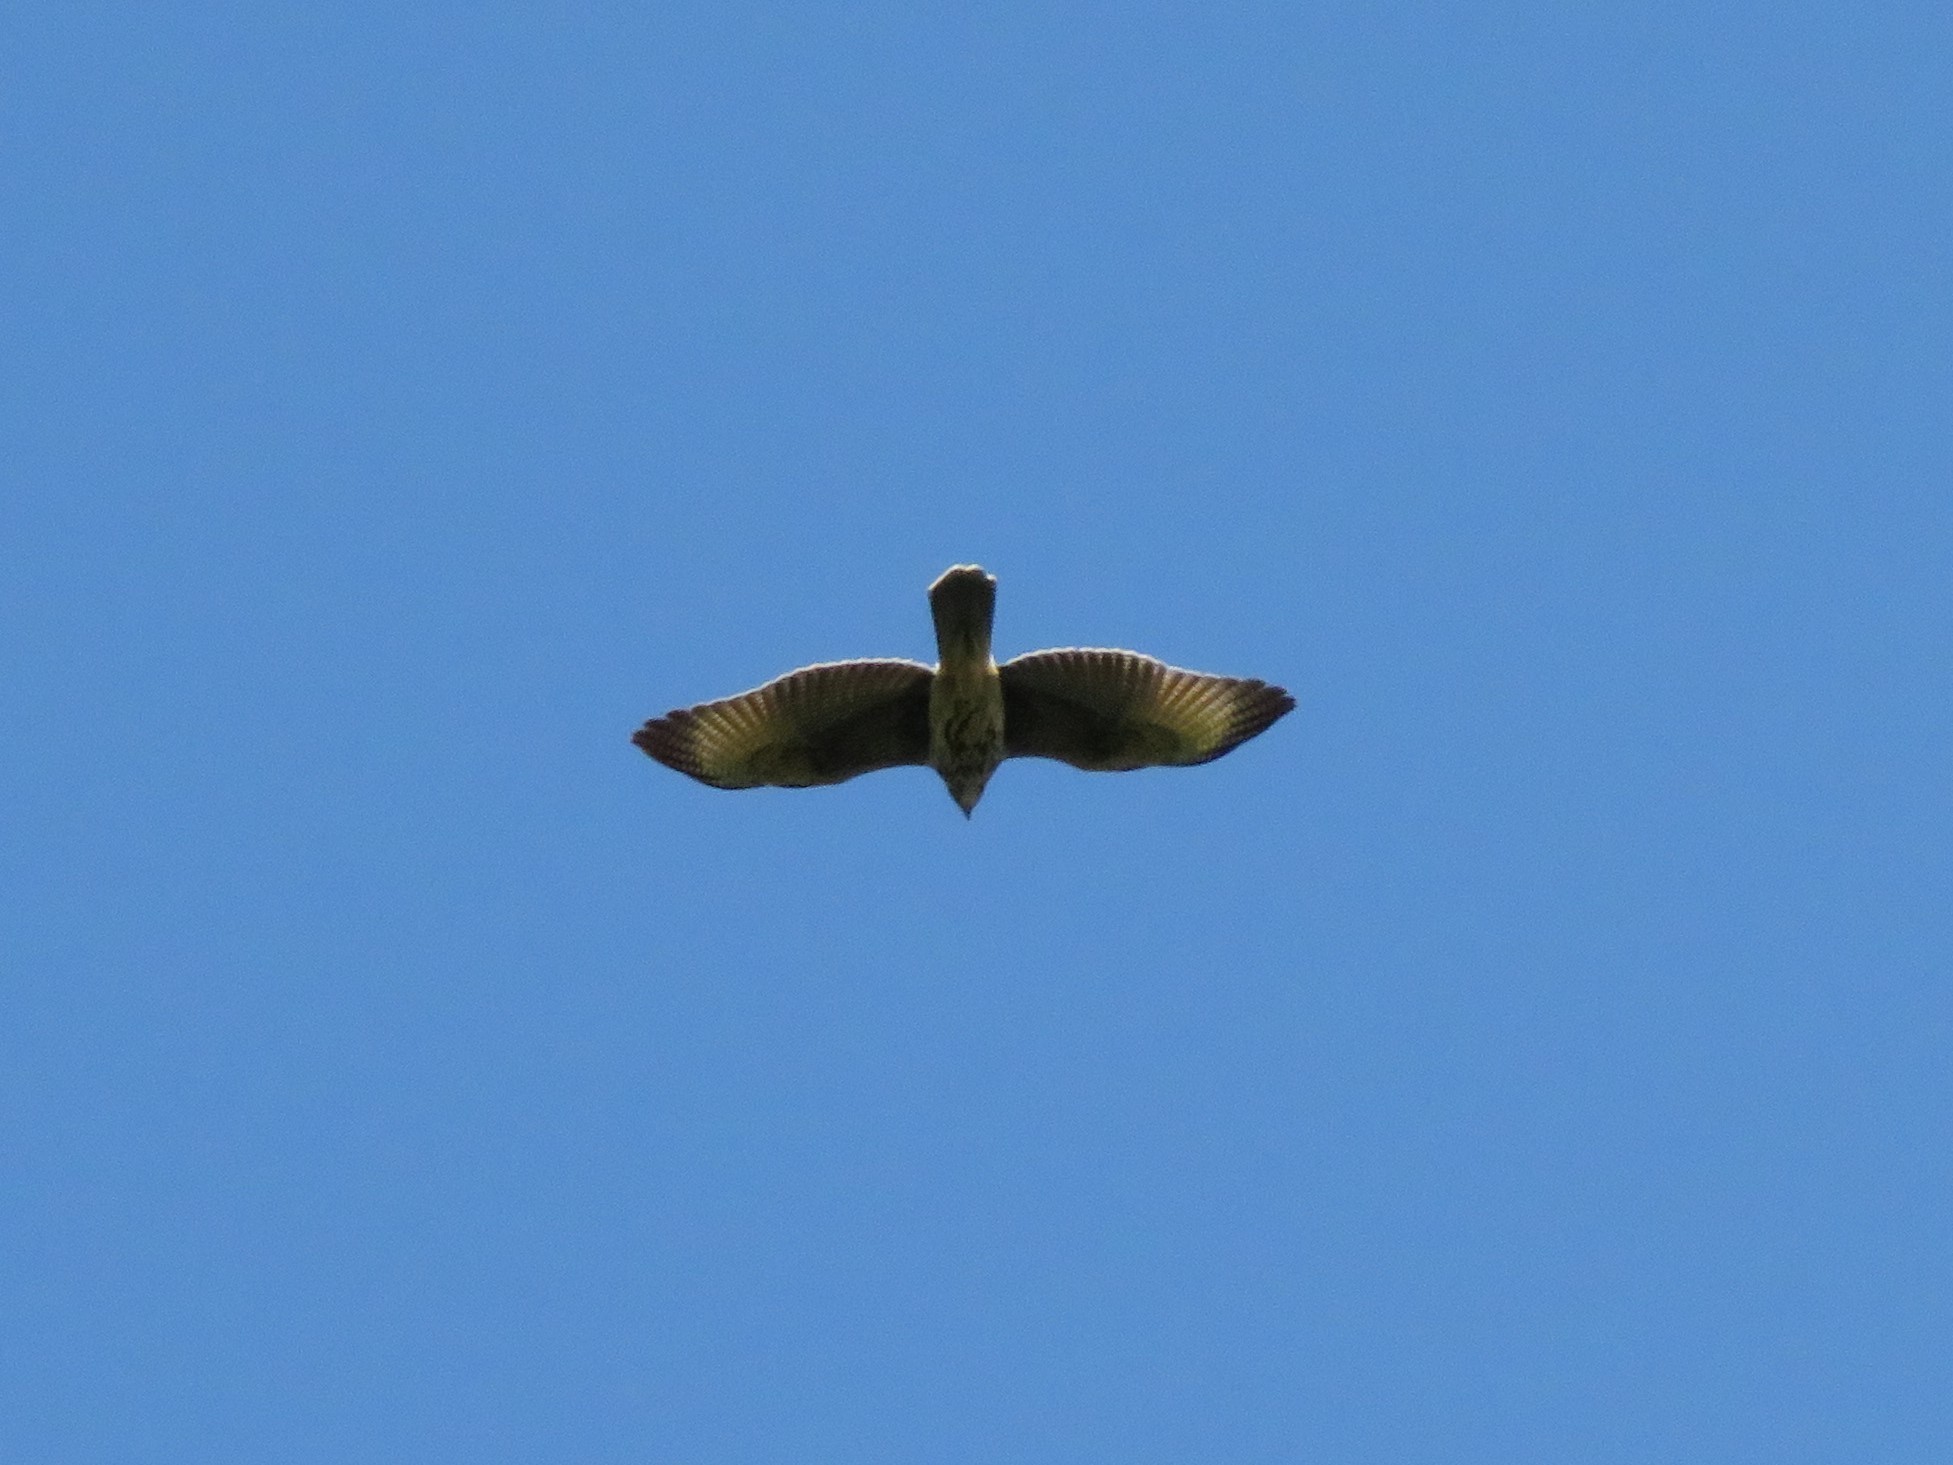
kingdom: Animalia
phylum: Chordata
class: Aves
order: Accipitriformes
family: Accipitridae
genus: Parabuteo
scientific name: Parabuteo unicinctus
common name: Harris's hawk
